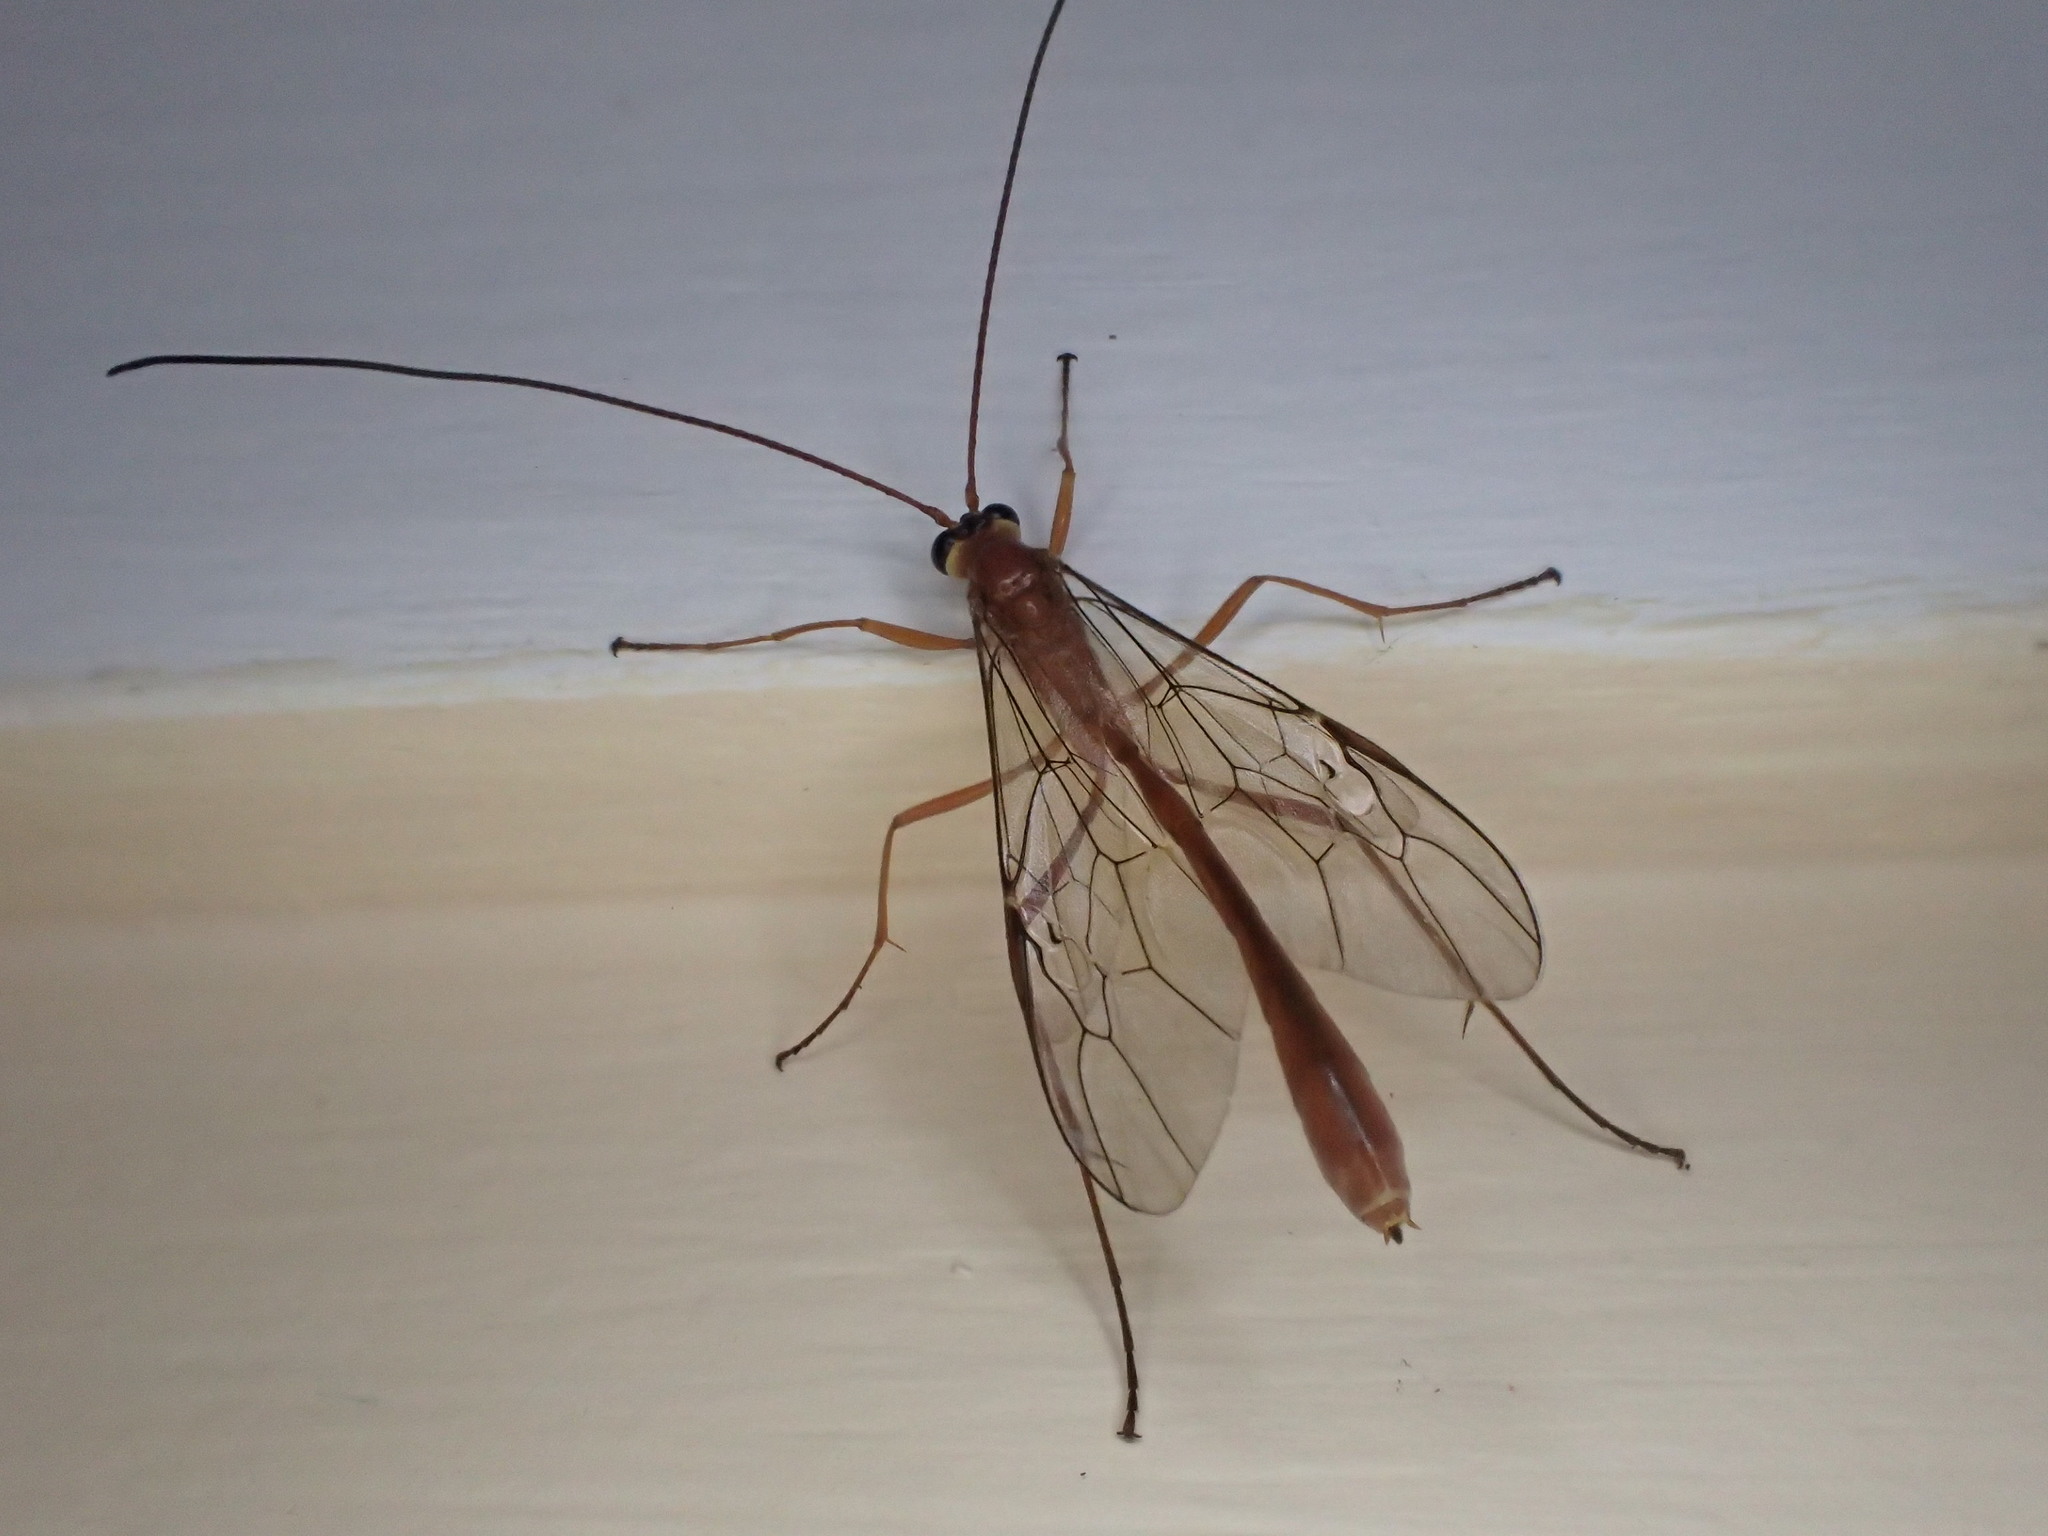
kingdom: Animalia
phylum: Arthropoda
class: Insecta
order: Hymenoptera
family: Ichneumonidae
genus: Dicamptus
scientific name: Dicamptus fuscicornis
